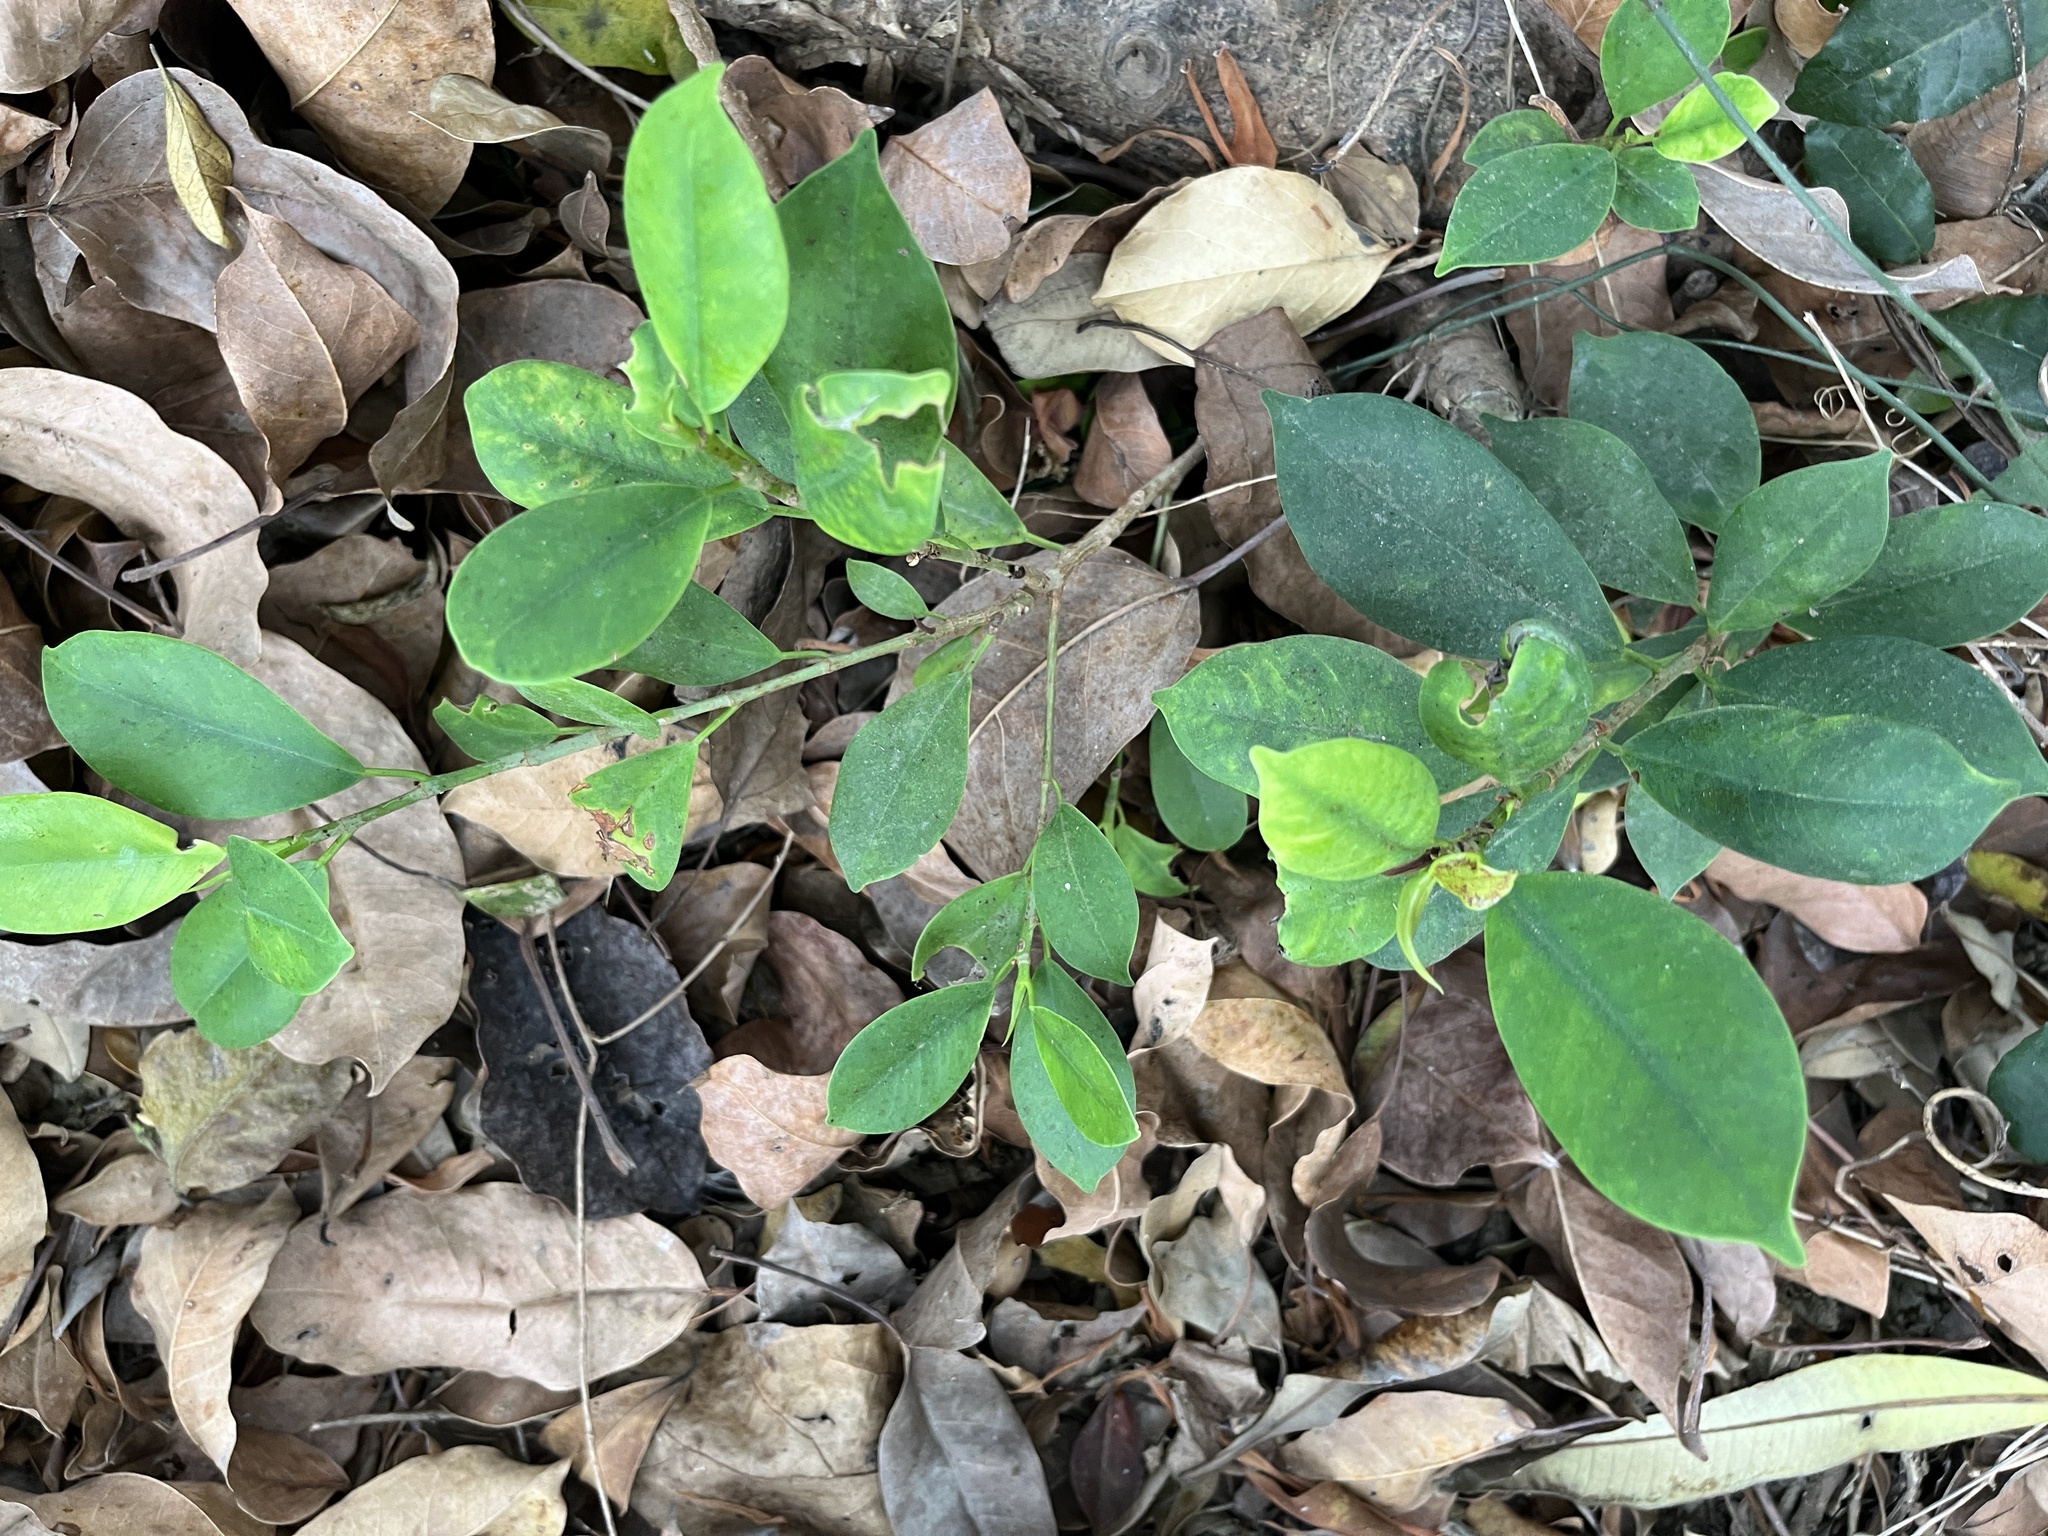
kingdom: Plantae
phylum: Tracheophyta
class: Magnoliopsida
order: Rosales
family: Moraceae
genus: Ficus
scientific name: Ficus microcarpa
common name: Chinese banyan
